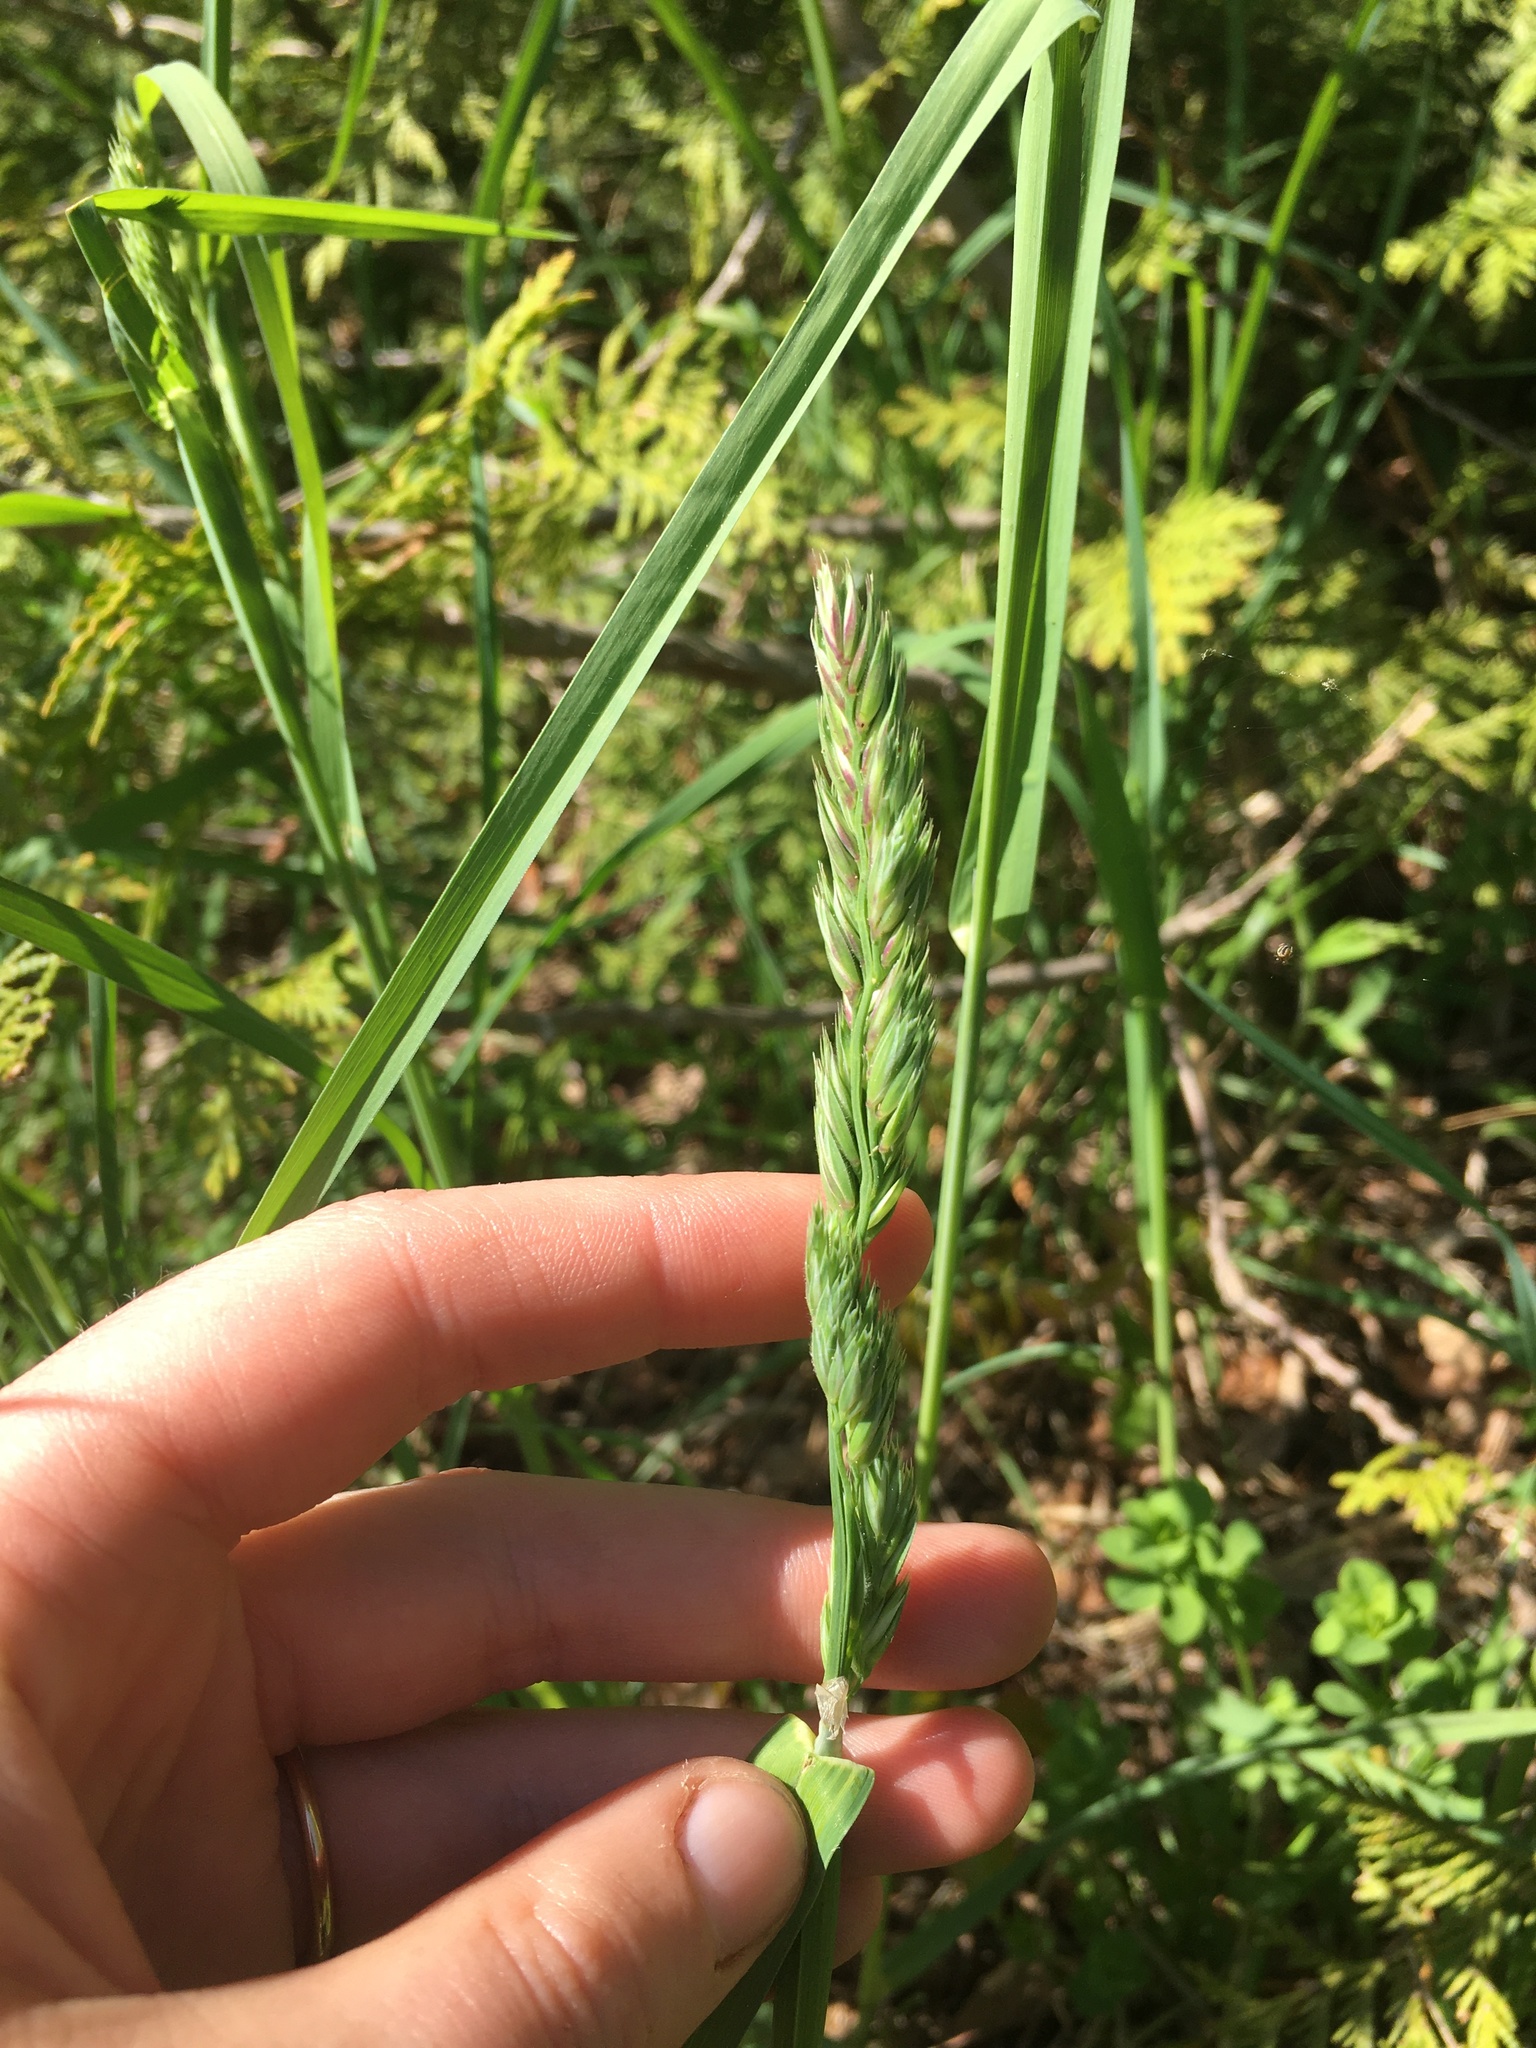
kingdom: Plantae
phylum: Tracheophyta
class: Liliopsida
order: Poales
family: Poaceae
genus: Dactylis
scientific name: Dactylis glomerata
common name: Orchardgrass
